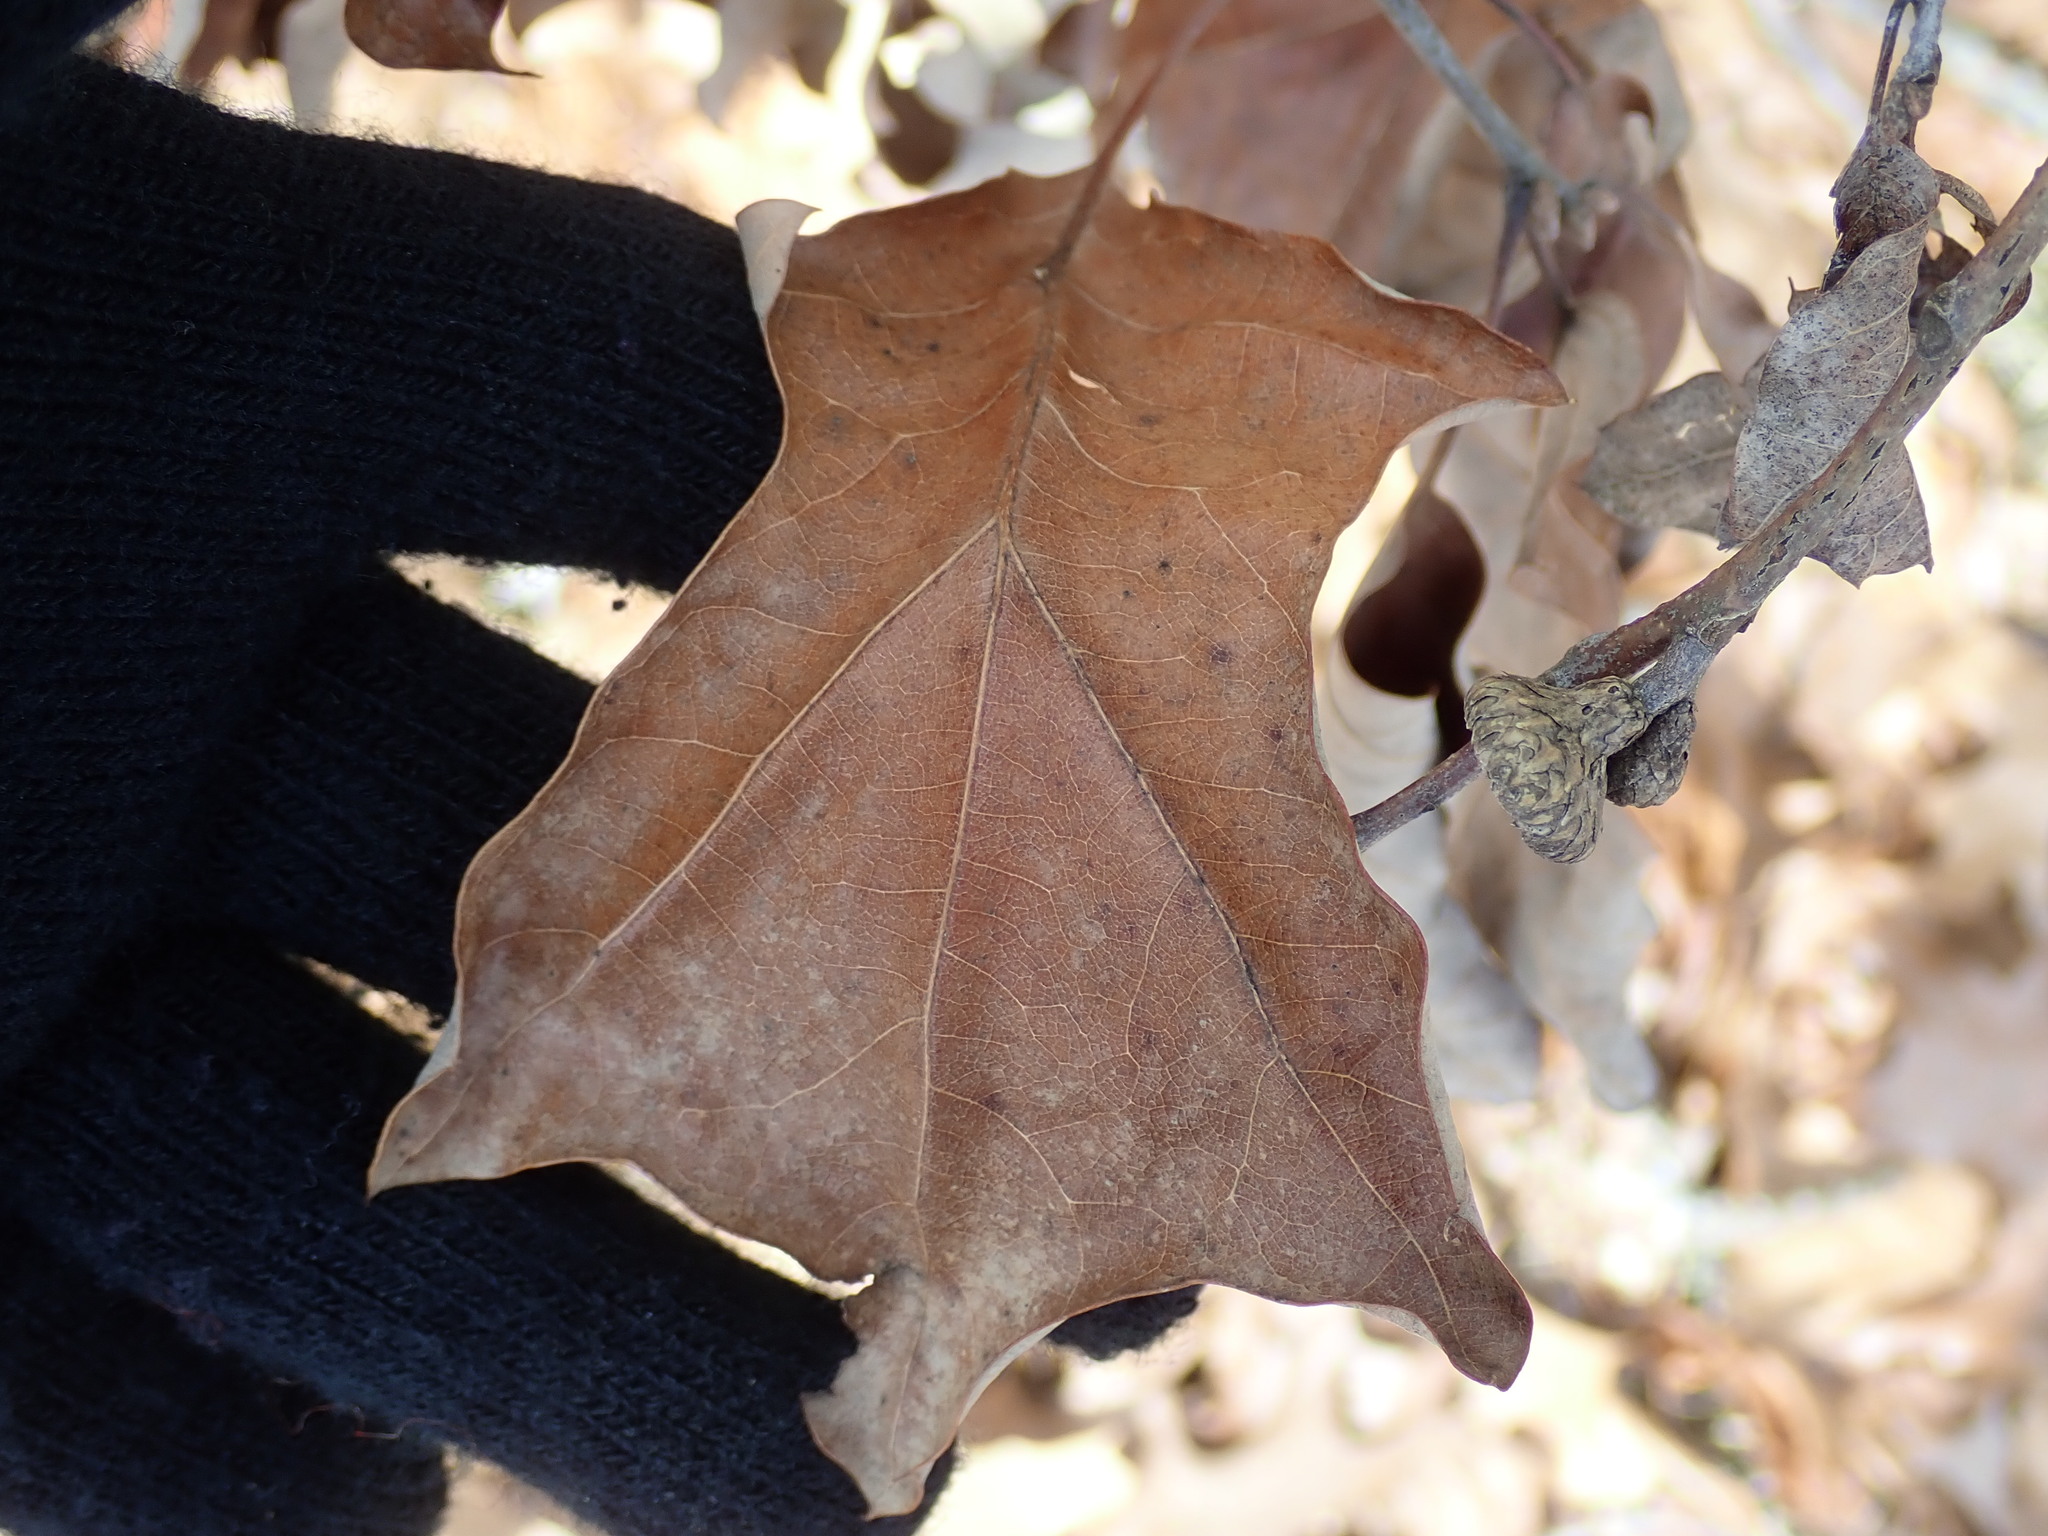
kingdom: Plantae
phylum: Tracheophyta
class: Magnoliopsida
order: Fagales
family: Fagaceae
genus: Quercus
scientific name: Quercus ilicifolia
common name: Bear oak
